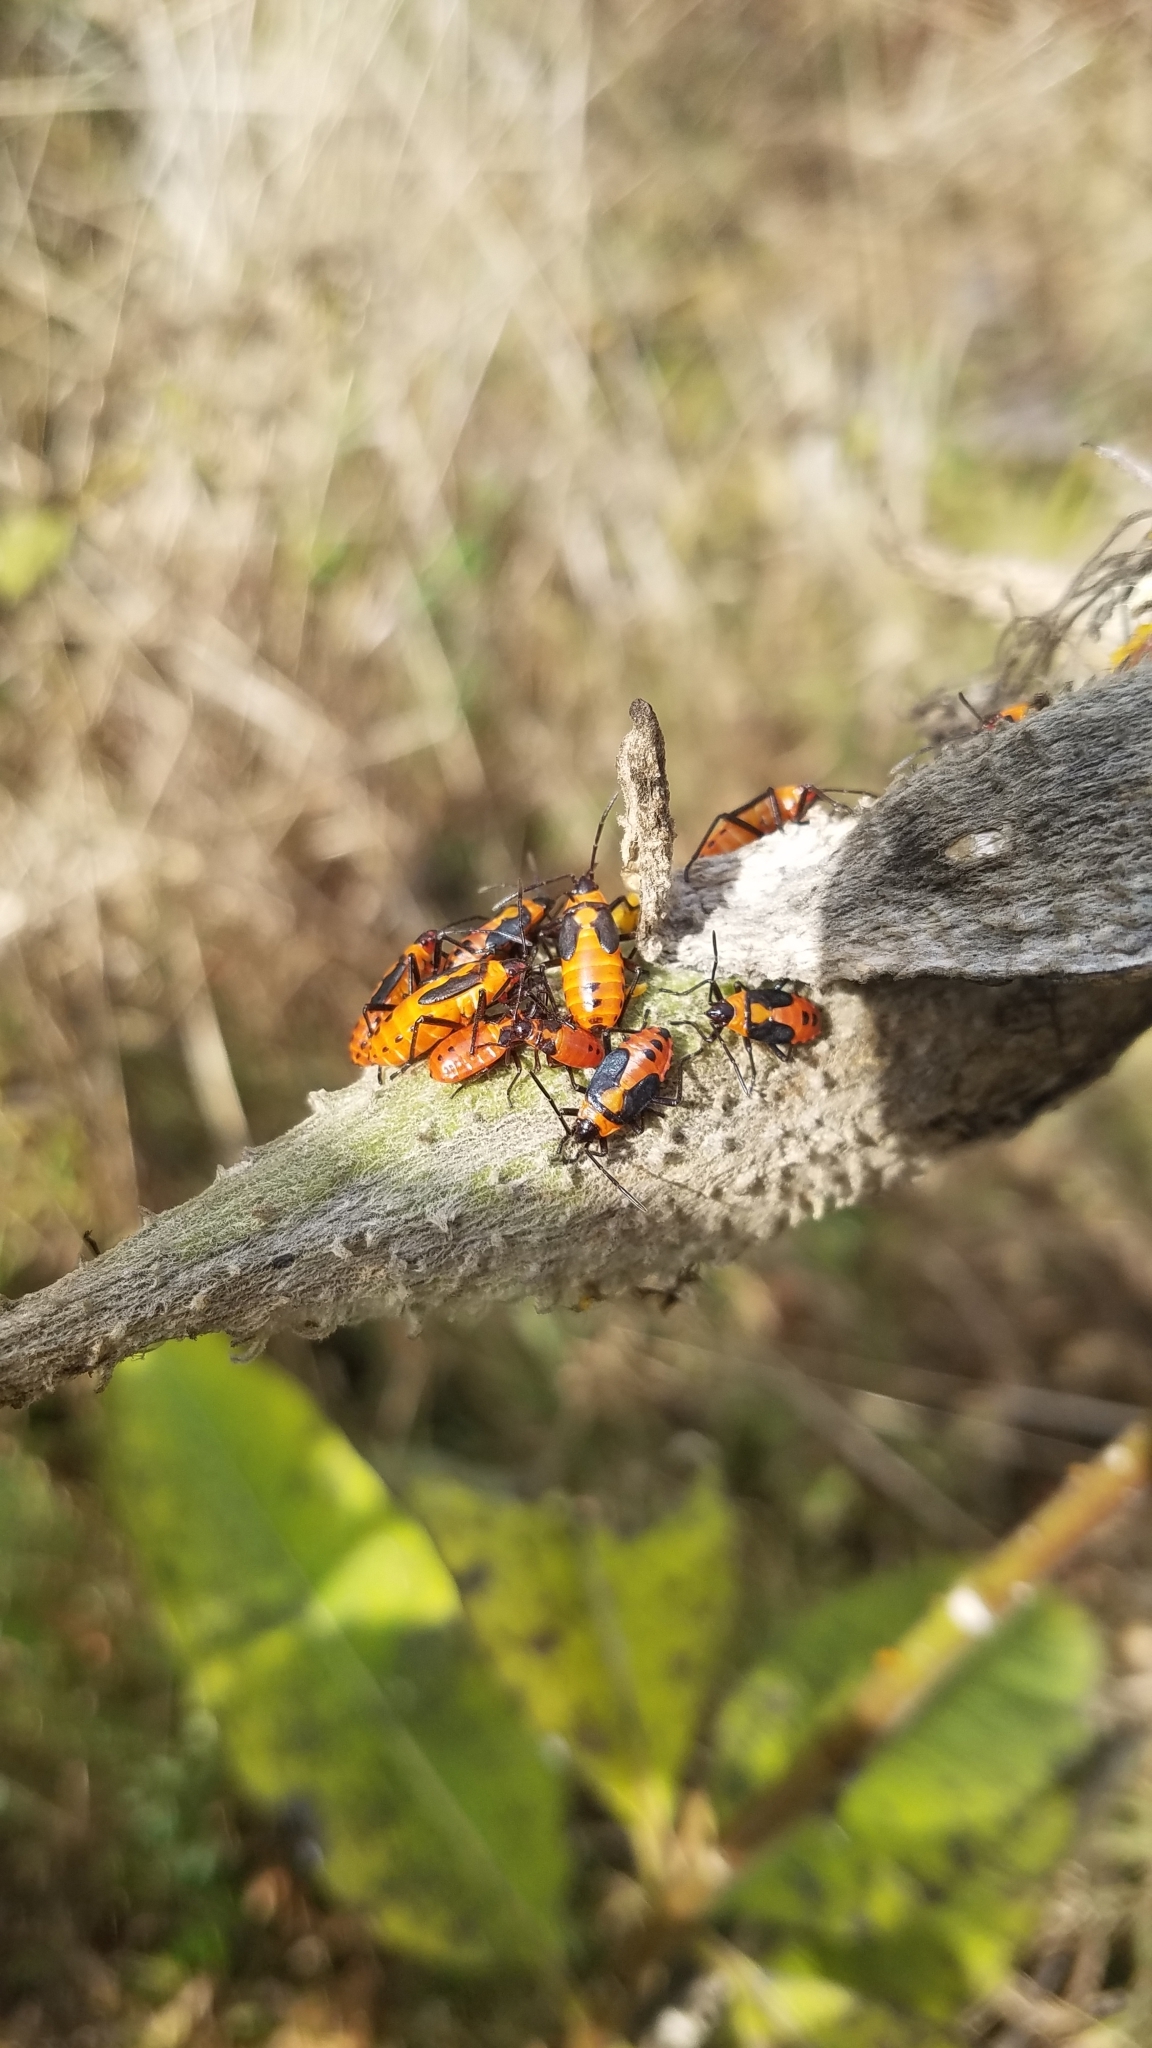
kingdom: Animalia
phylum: Arthropoda
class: Insecta
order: Hemiptera
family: Lygaeidae
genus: Oncopeltus
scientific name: Oncopeltus fasciatus
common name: Large milkweed bug
